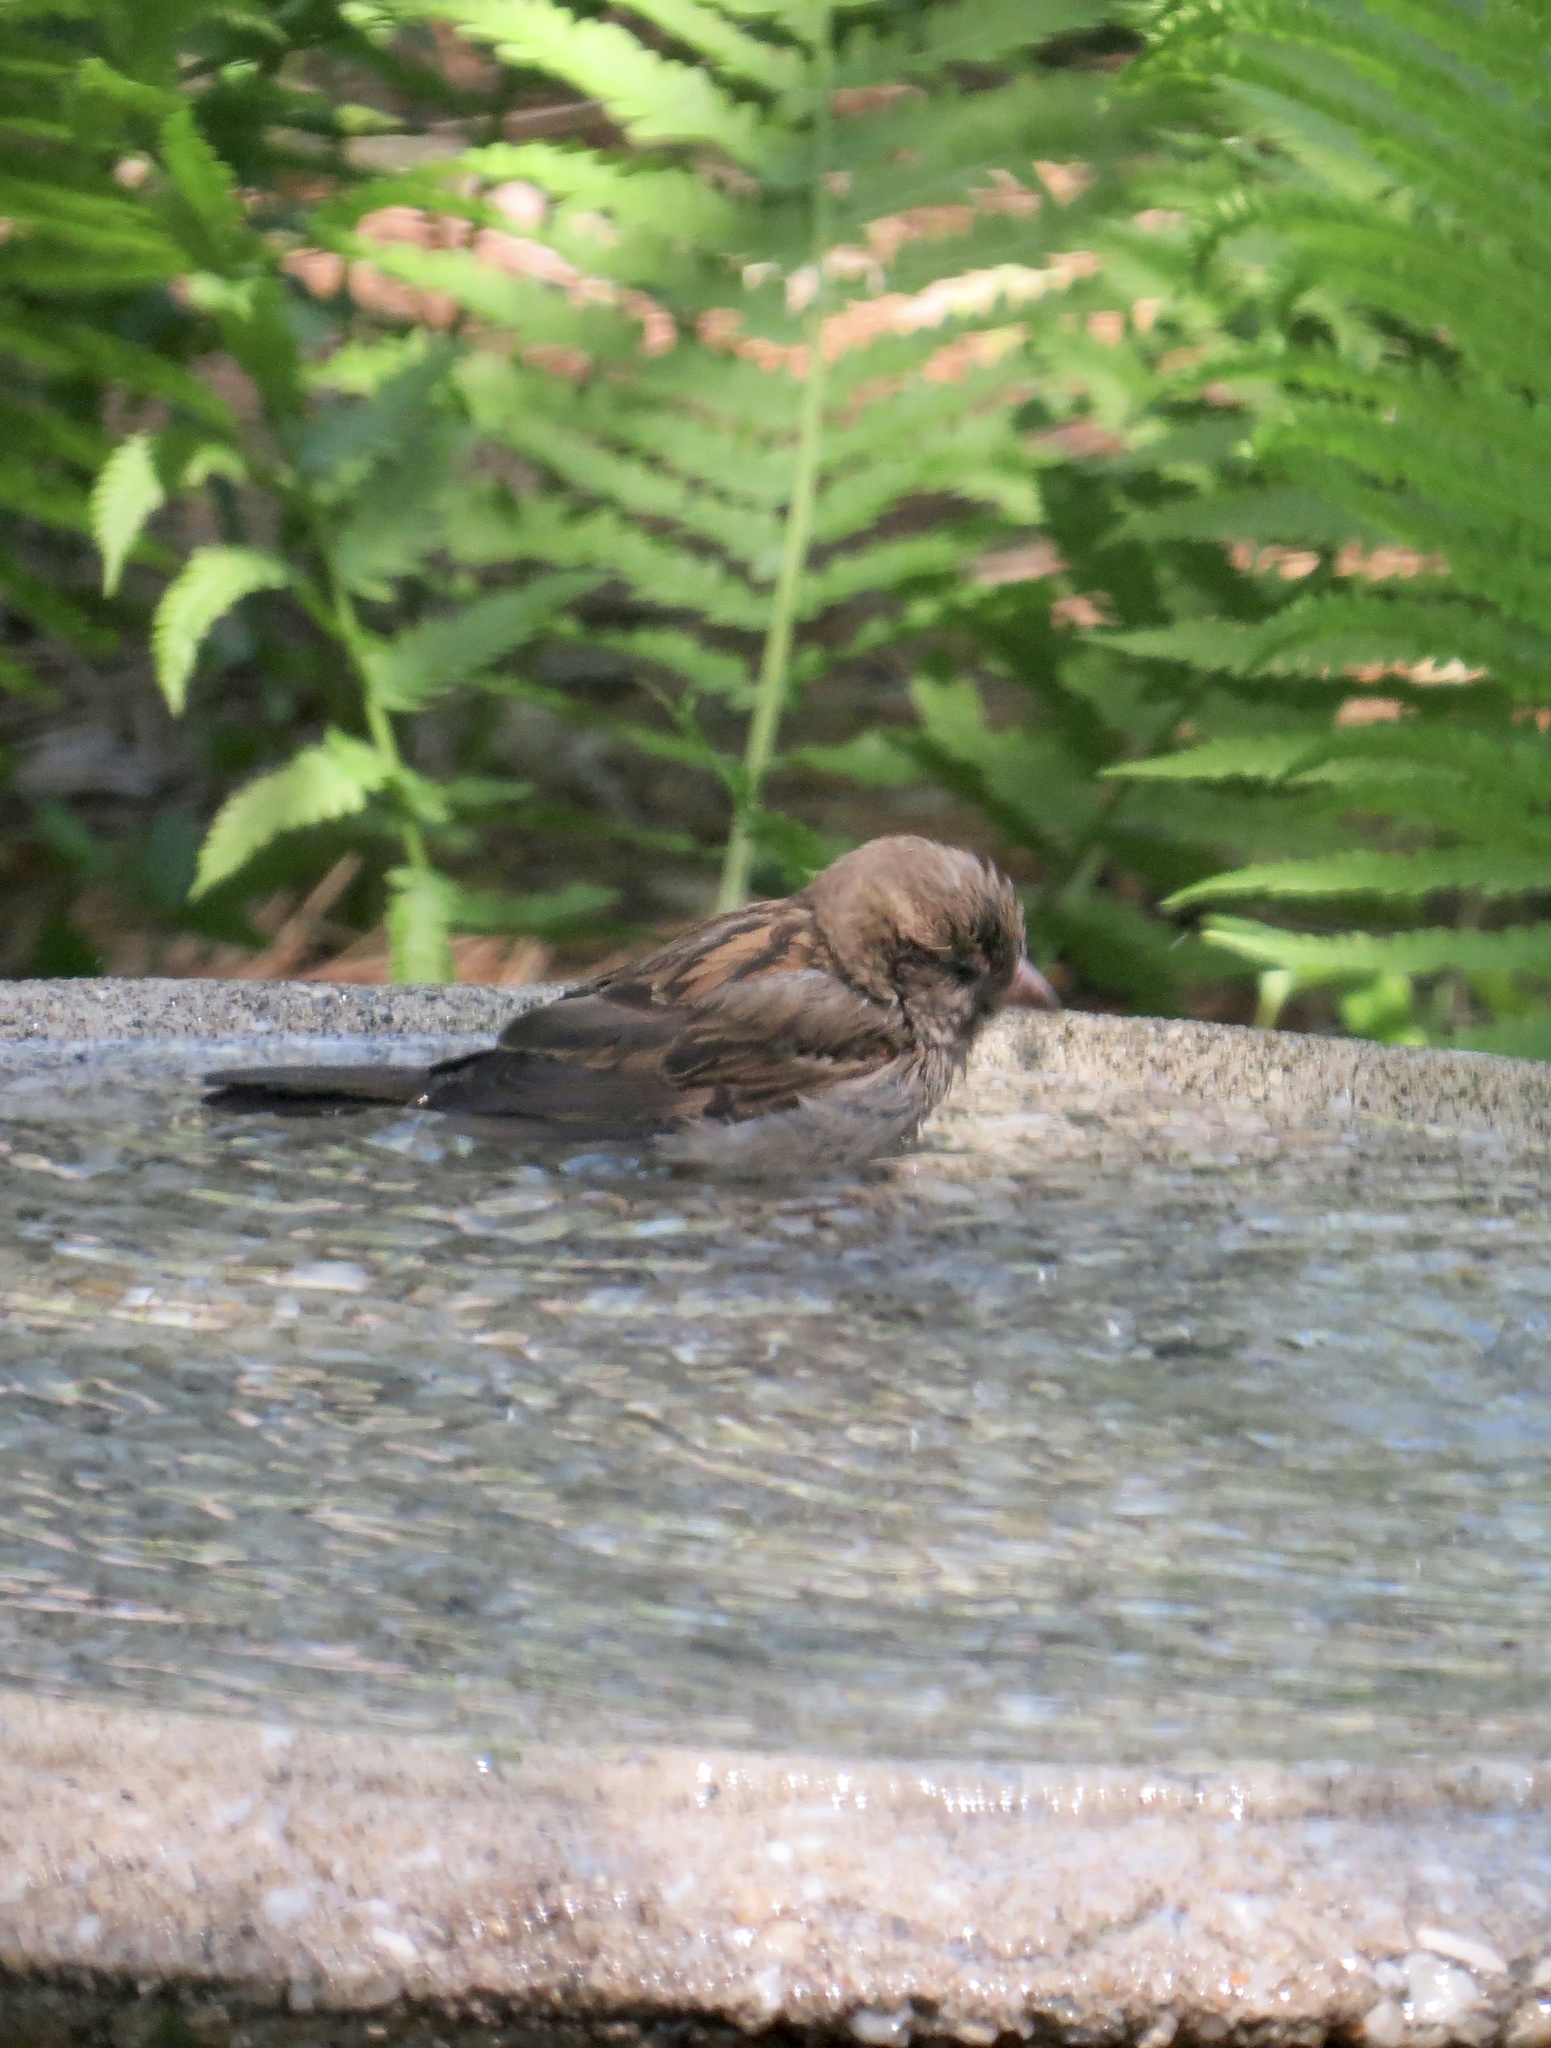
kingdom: Animalia
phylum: Chordata
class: Aves
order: Passeriformes
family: Passeridae
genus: Passer
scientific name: Passer domesticus
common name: House sparrow
